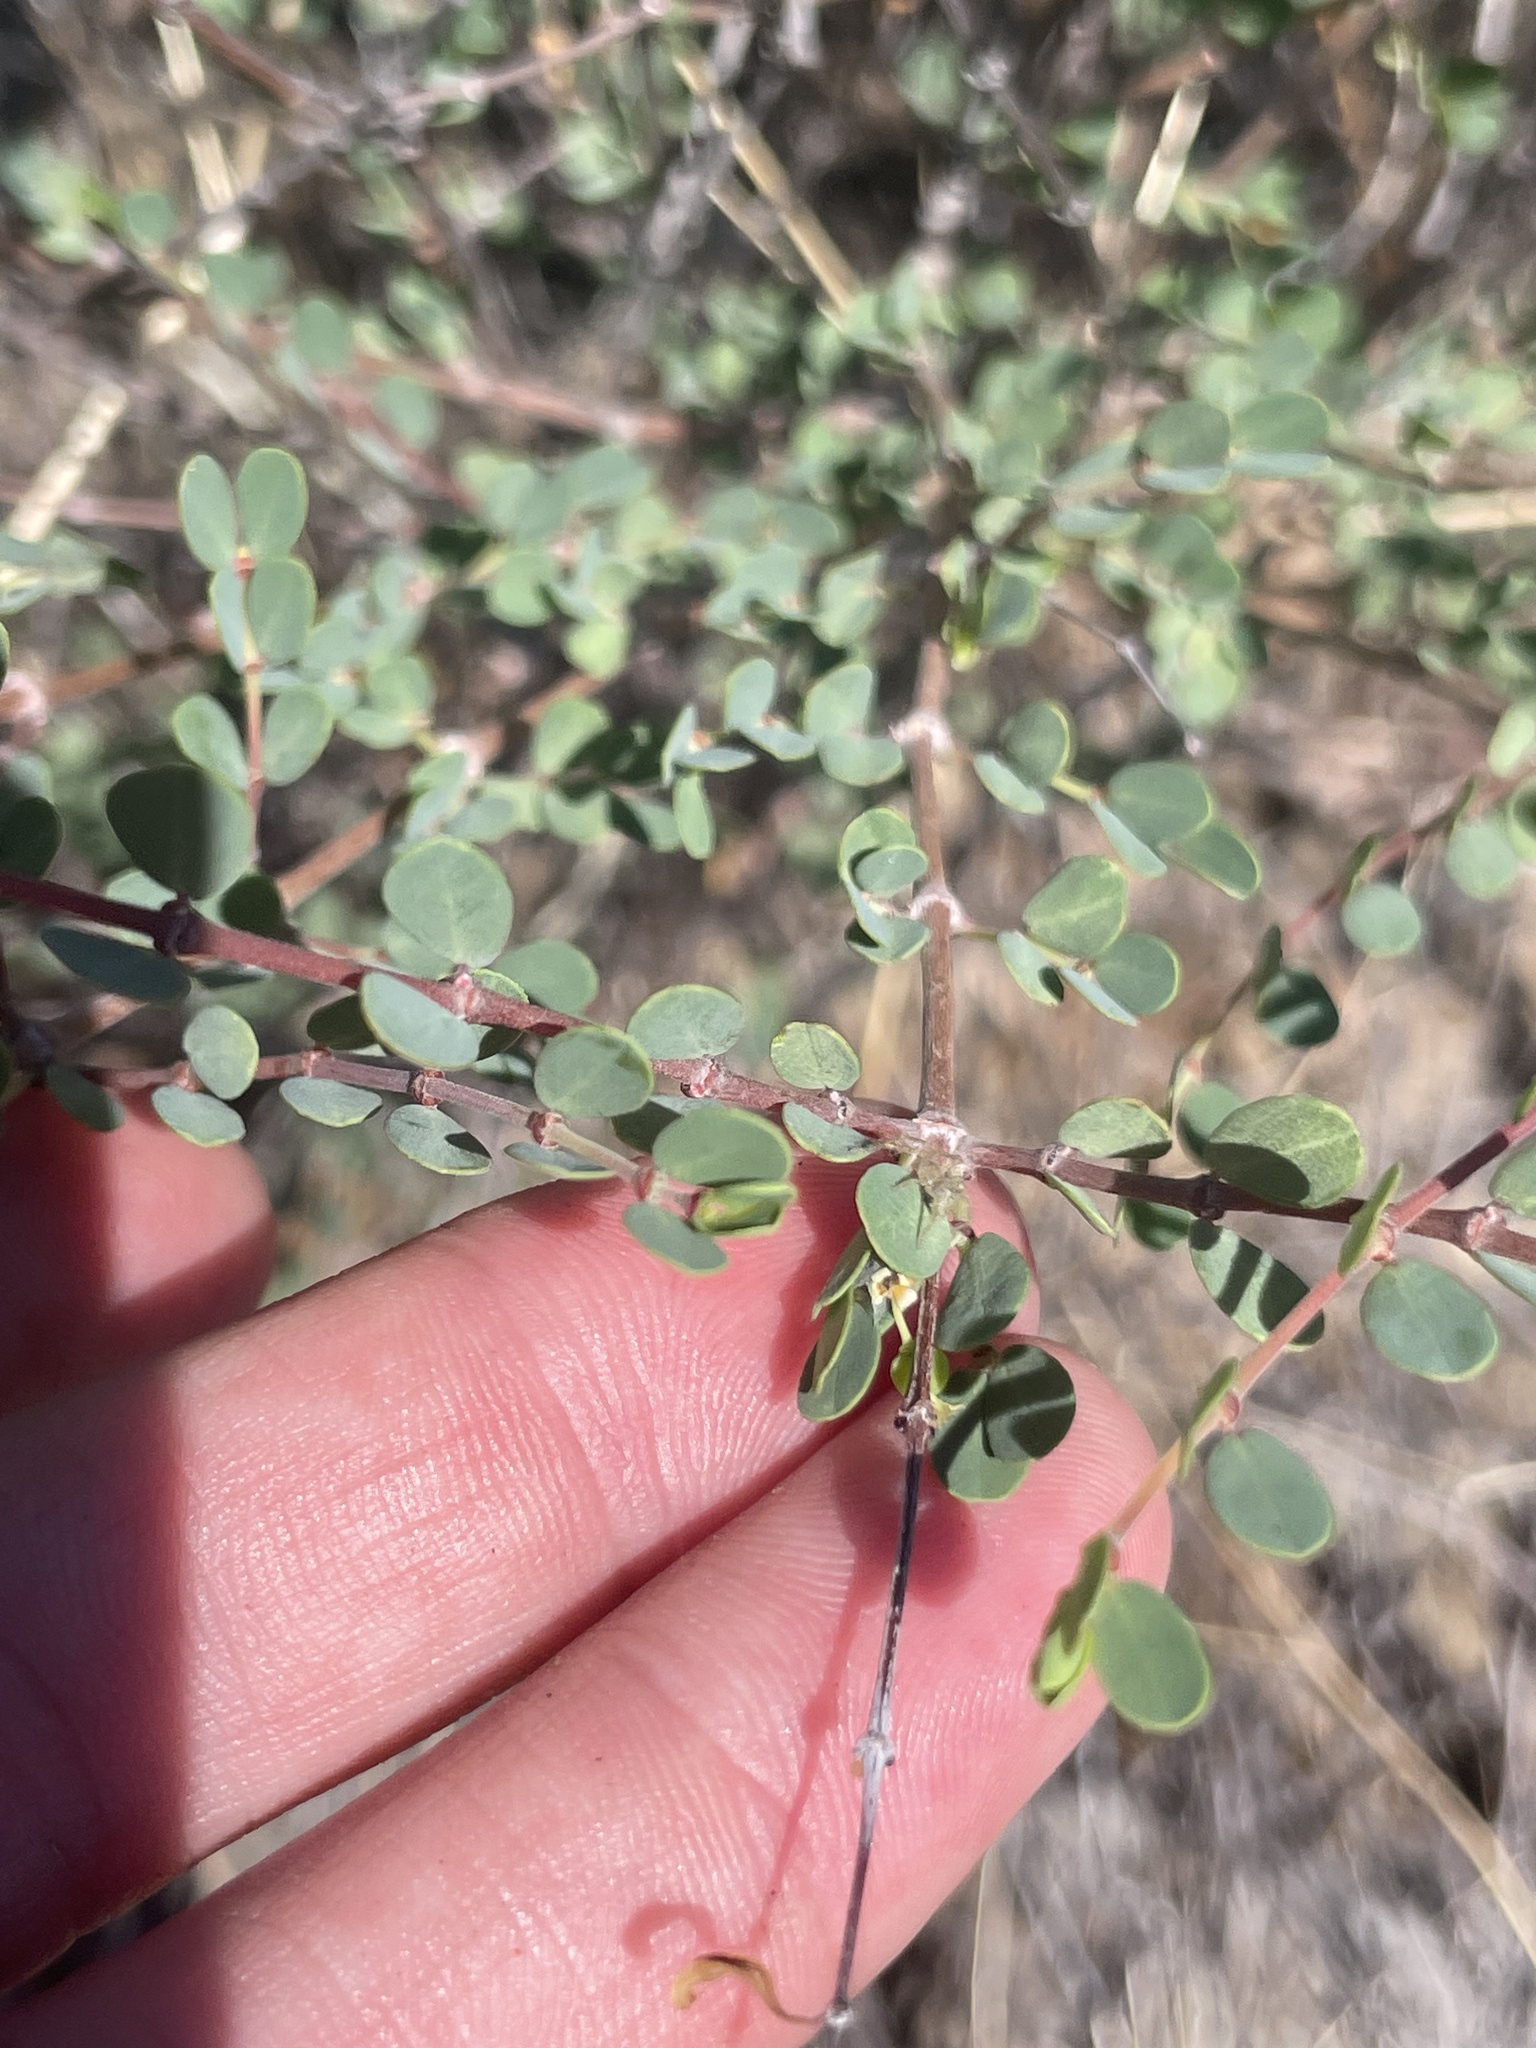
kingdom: Plantae
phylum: Tracheophyta
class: Magnoliopsida
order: Malpighiales
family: Euphorbiaceae
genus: Euphorbia
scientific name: Euphorbia magdalenae
